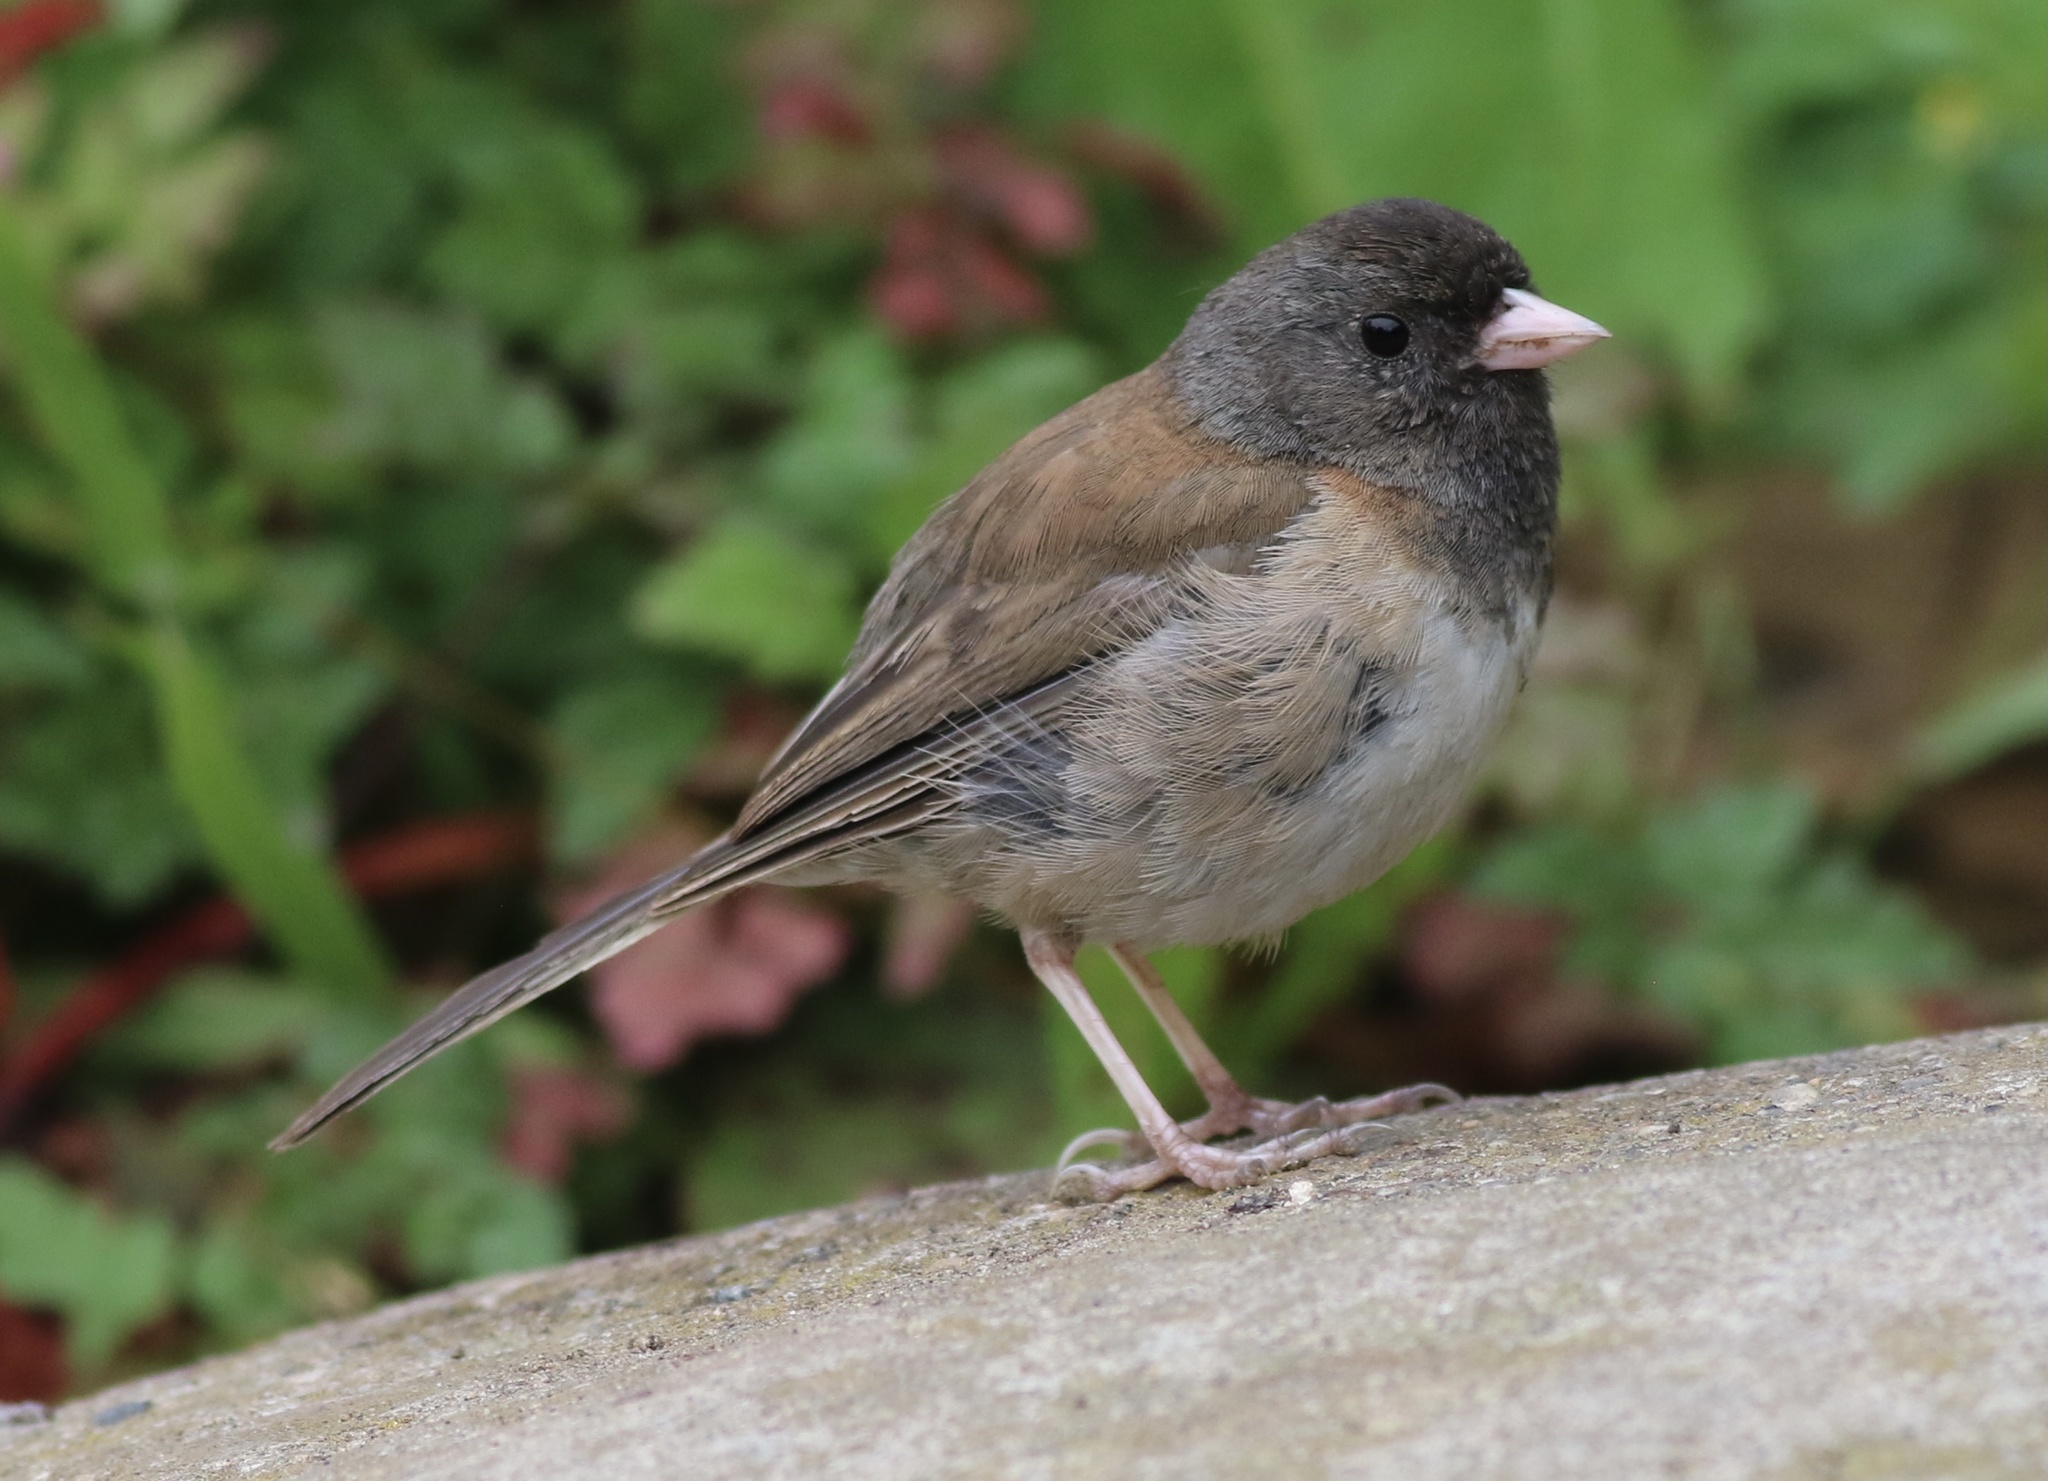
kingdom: Animalia
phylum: Chordata
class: Aves
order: Passeriformes
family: Passerellidae
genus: Junco
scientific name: Junco hyemalis
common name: Dark-eyed junco
